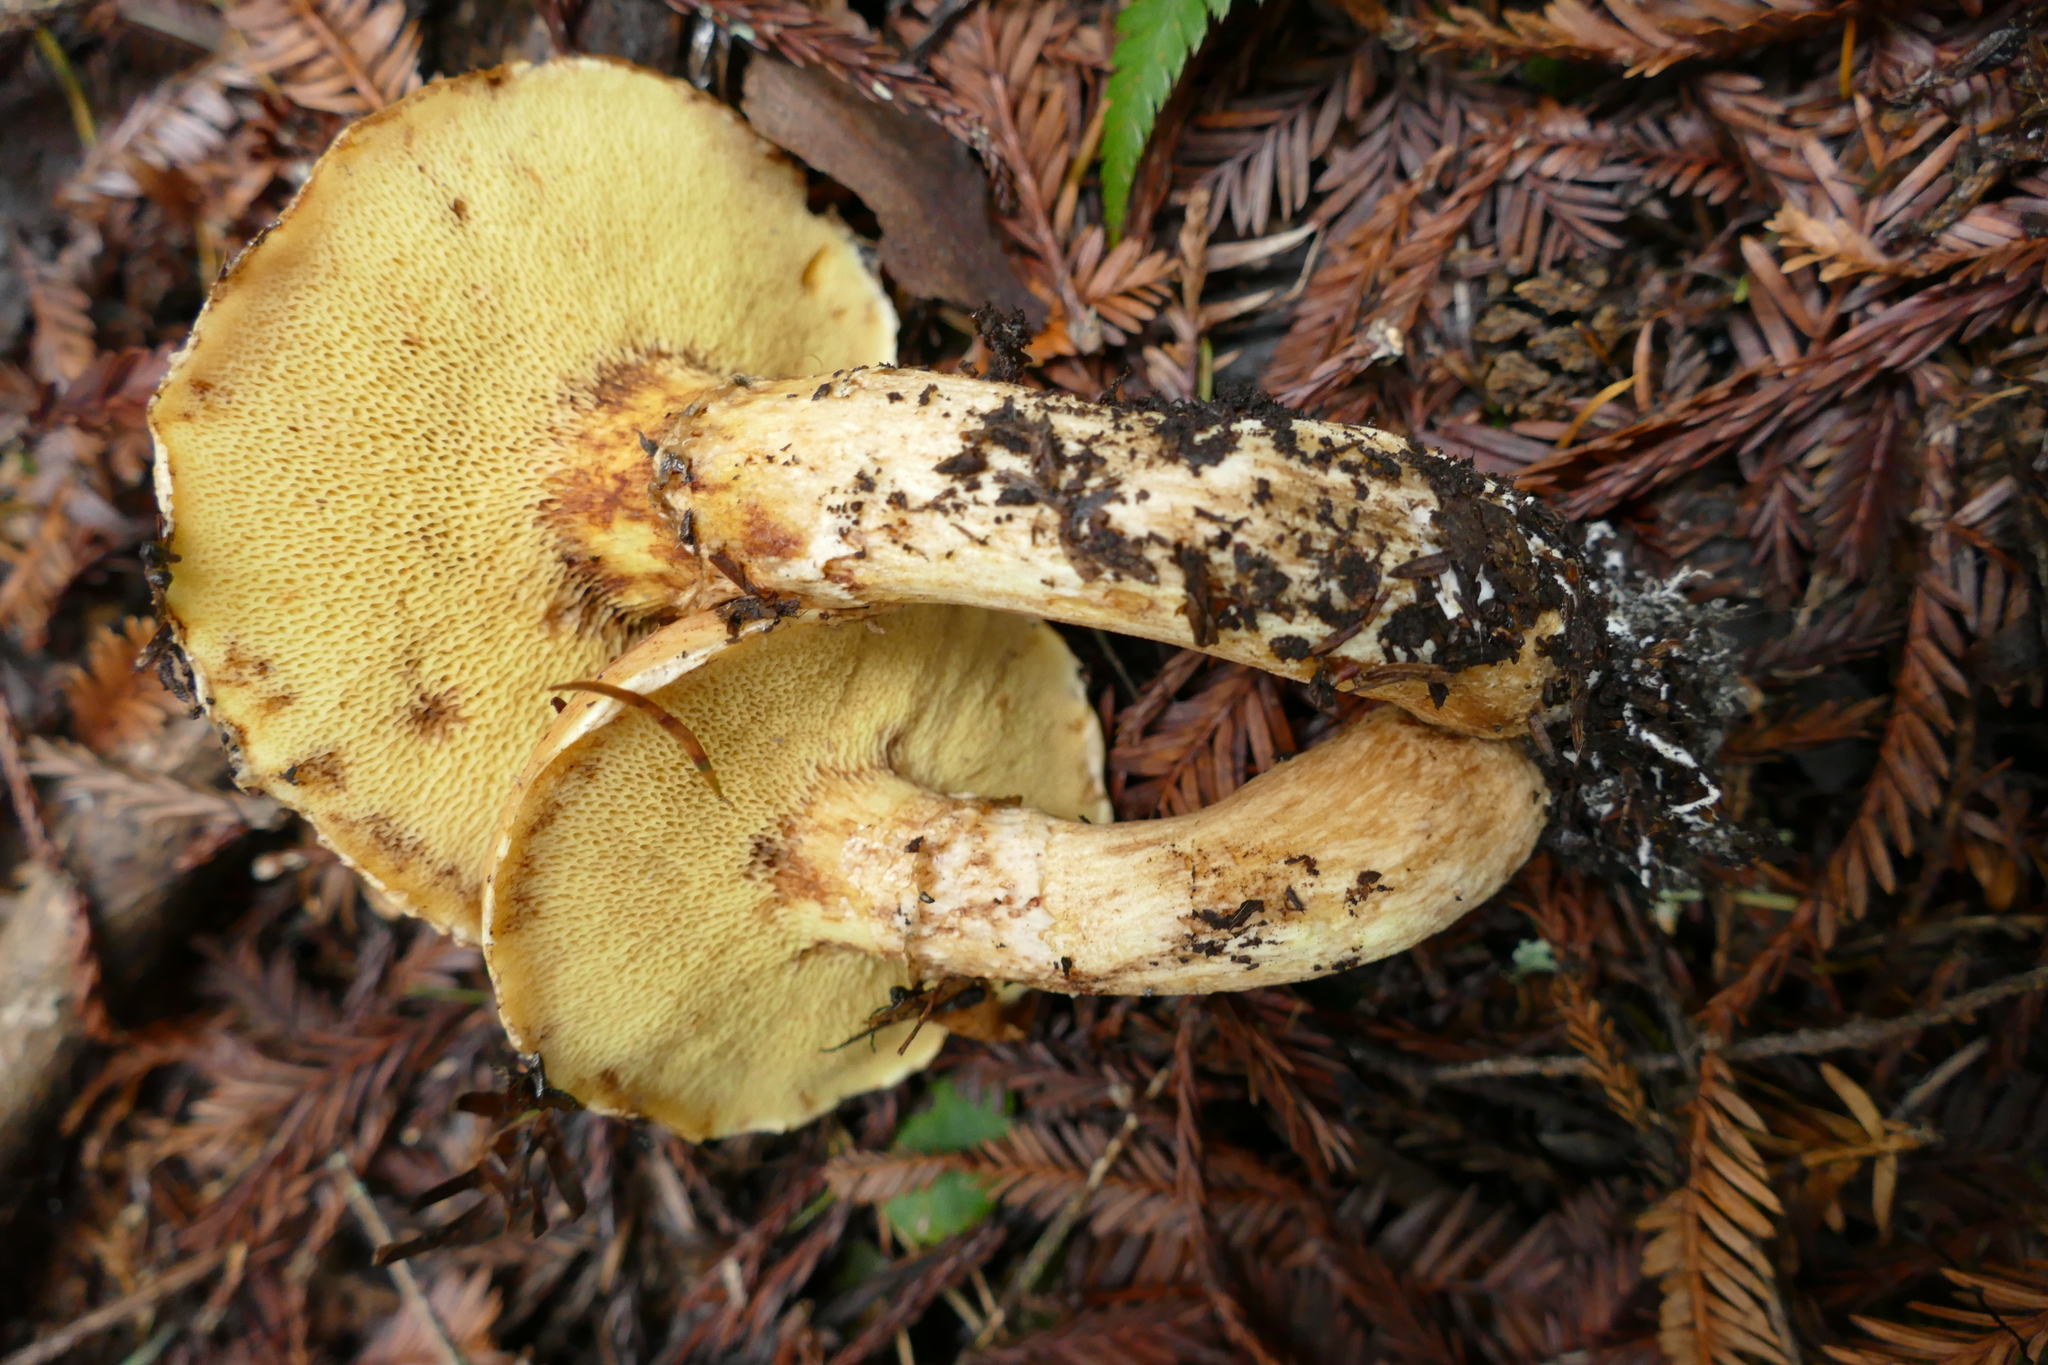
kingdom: Fungi
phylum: Basidiomycota
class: Agaricomycetes
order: Boletales
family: Suillaceae
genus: Suillus
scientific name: Suillus caerulescens
